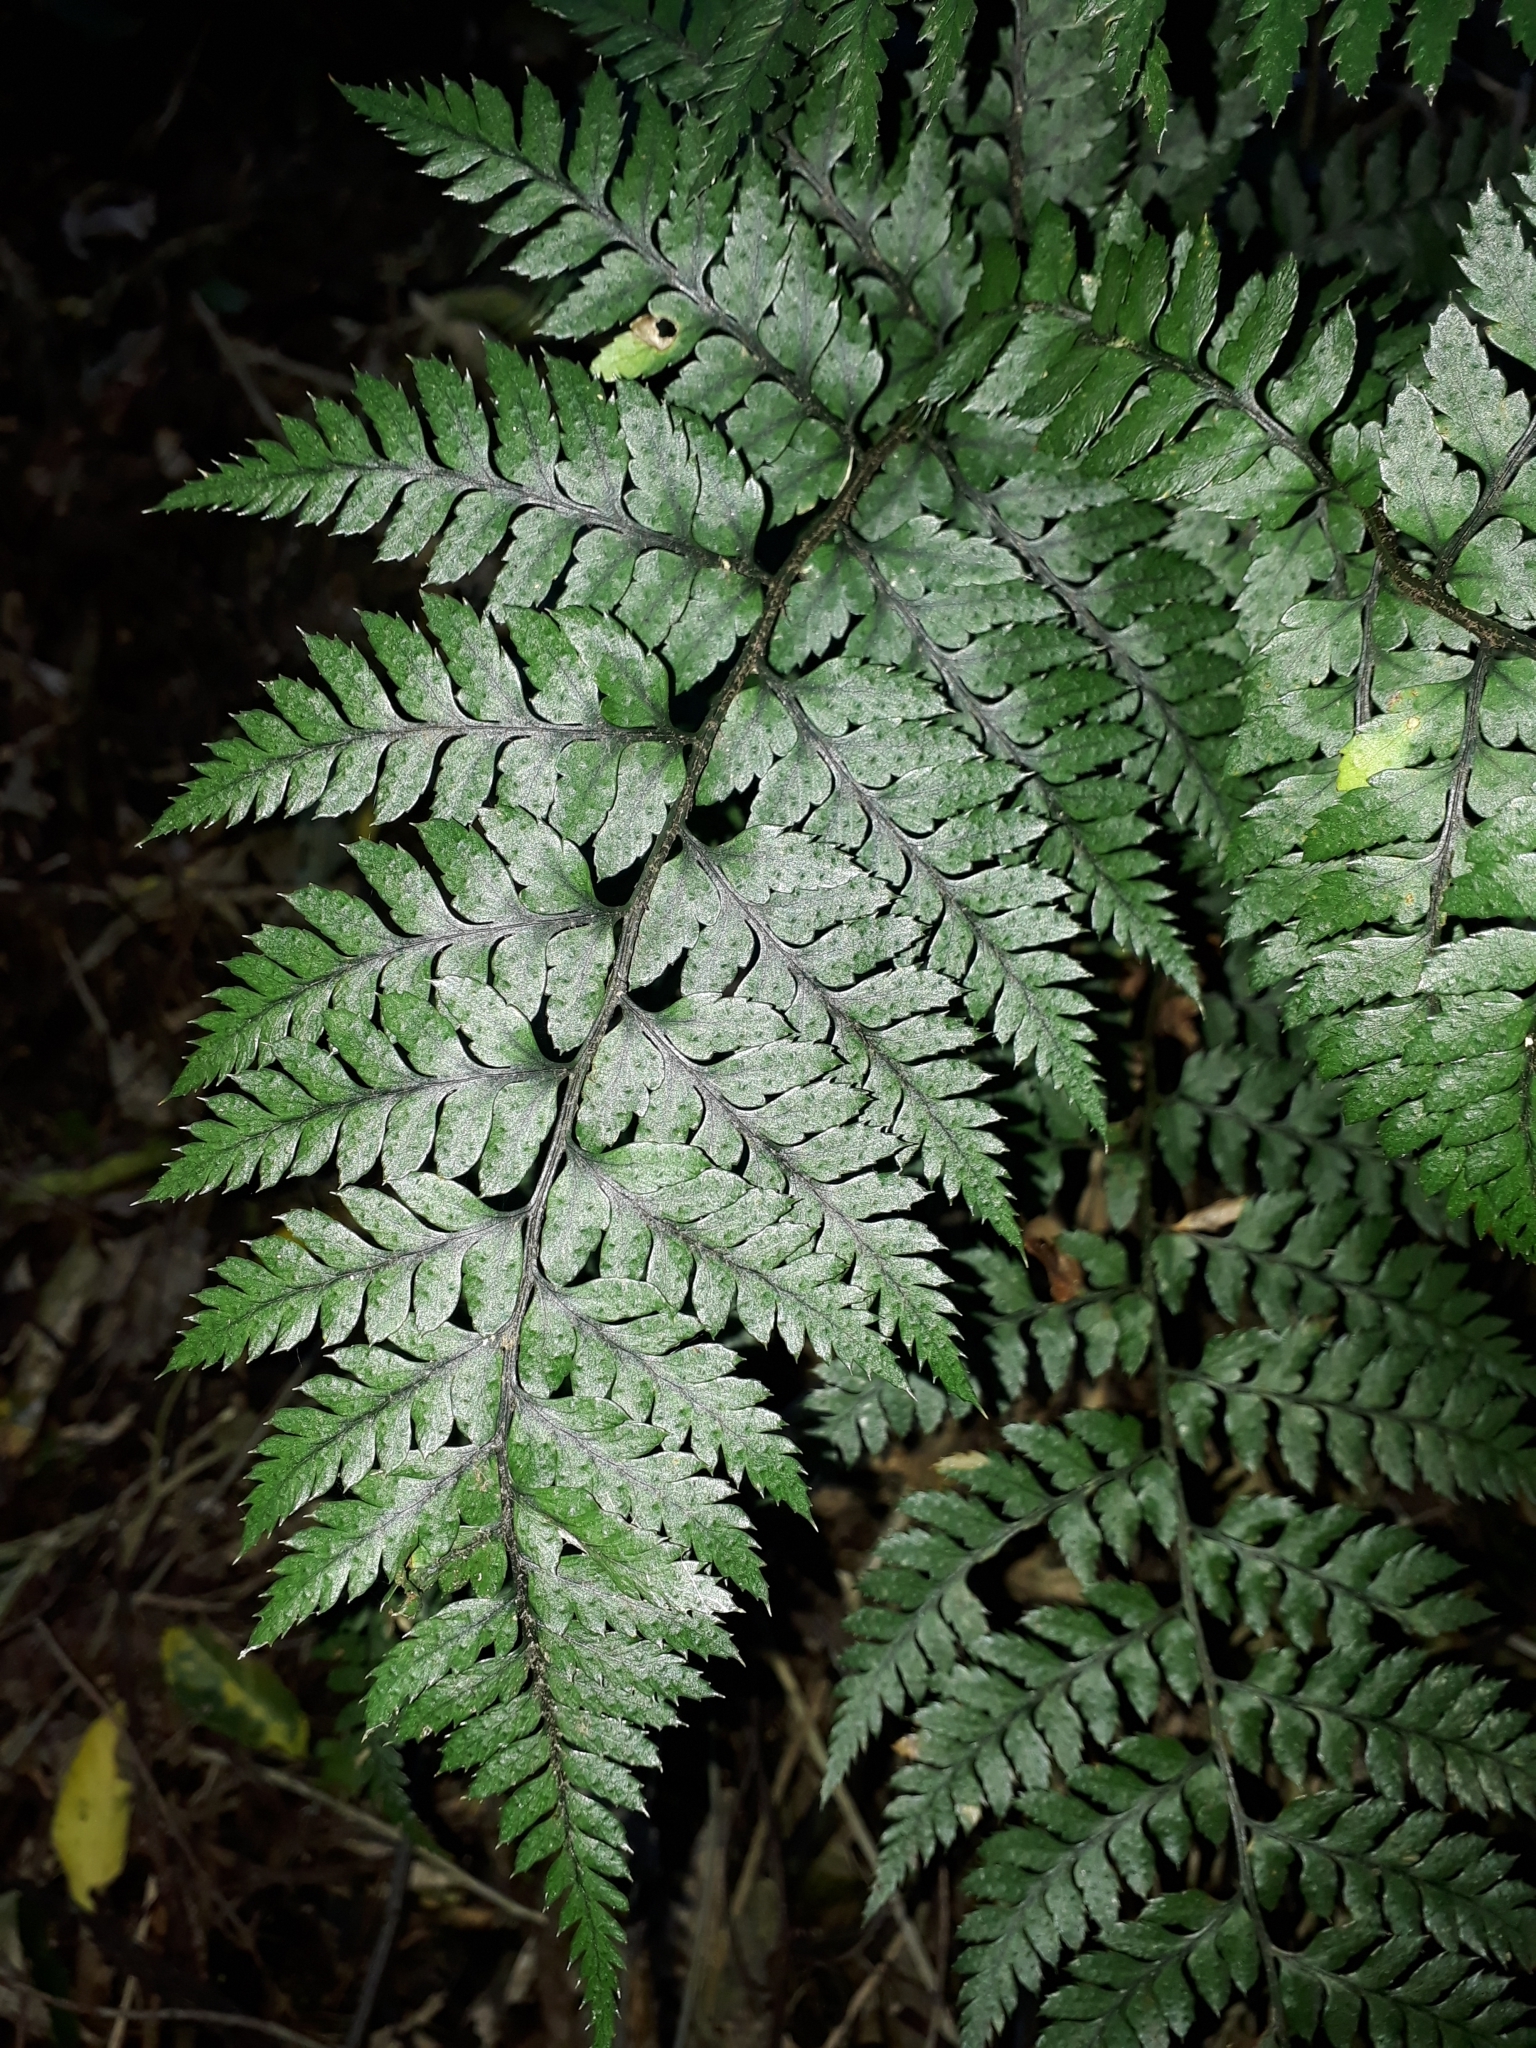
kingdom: Plantae
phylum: Tracheophyta
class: Polypodiopsida
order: Polypodiales
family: Dryopteridaceae
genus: Polystichum
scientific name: Polystichum neozelandicum
